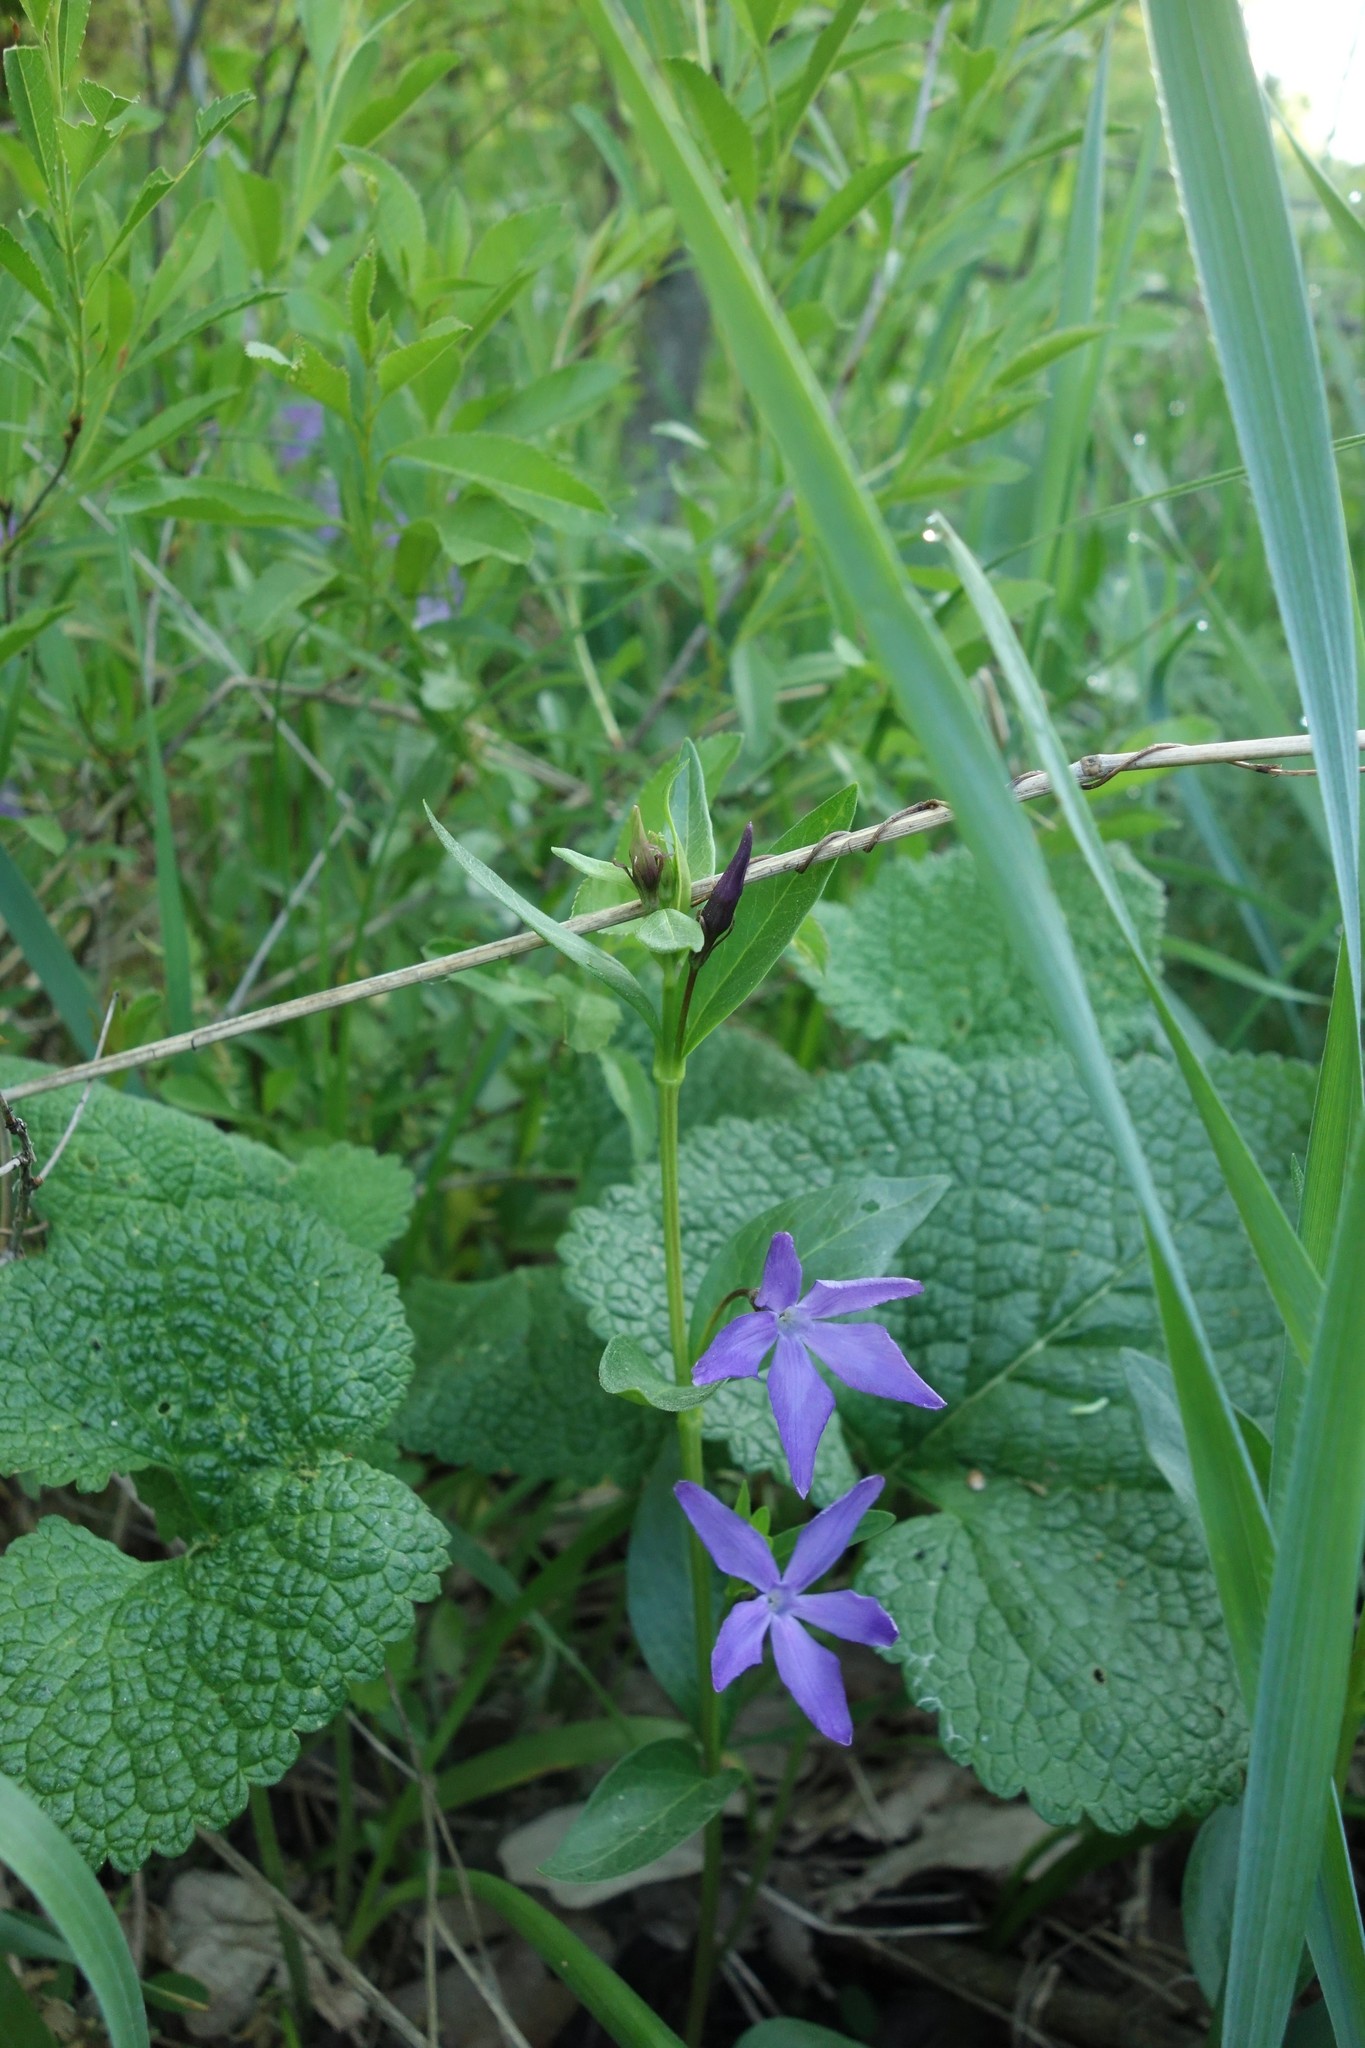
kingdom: Plantae
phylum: Tracheophyta
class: Magnoliopsida
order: Gentianales
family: Apocynaceae
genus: Vinca
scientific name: Vinca herbacea
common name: Herbaceous periwinkle
